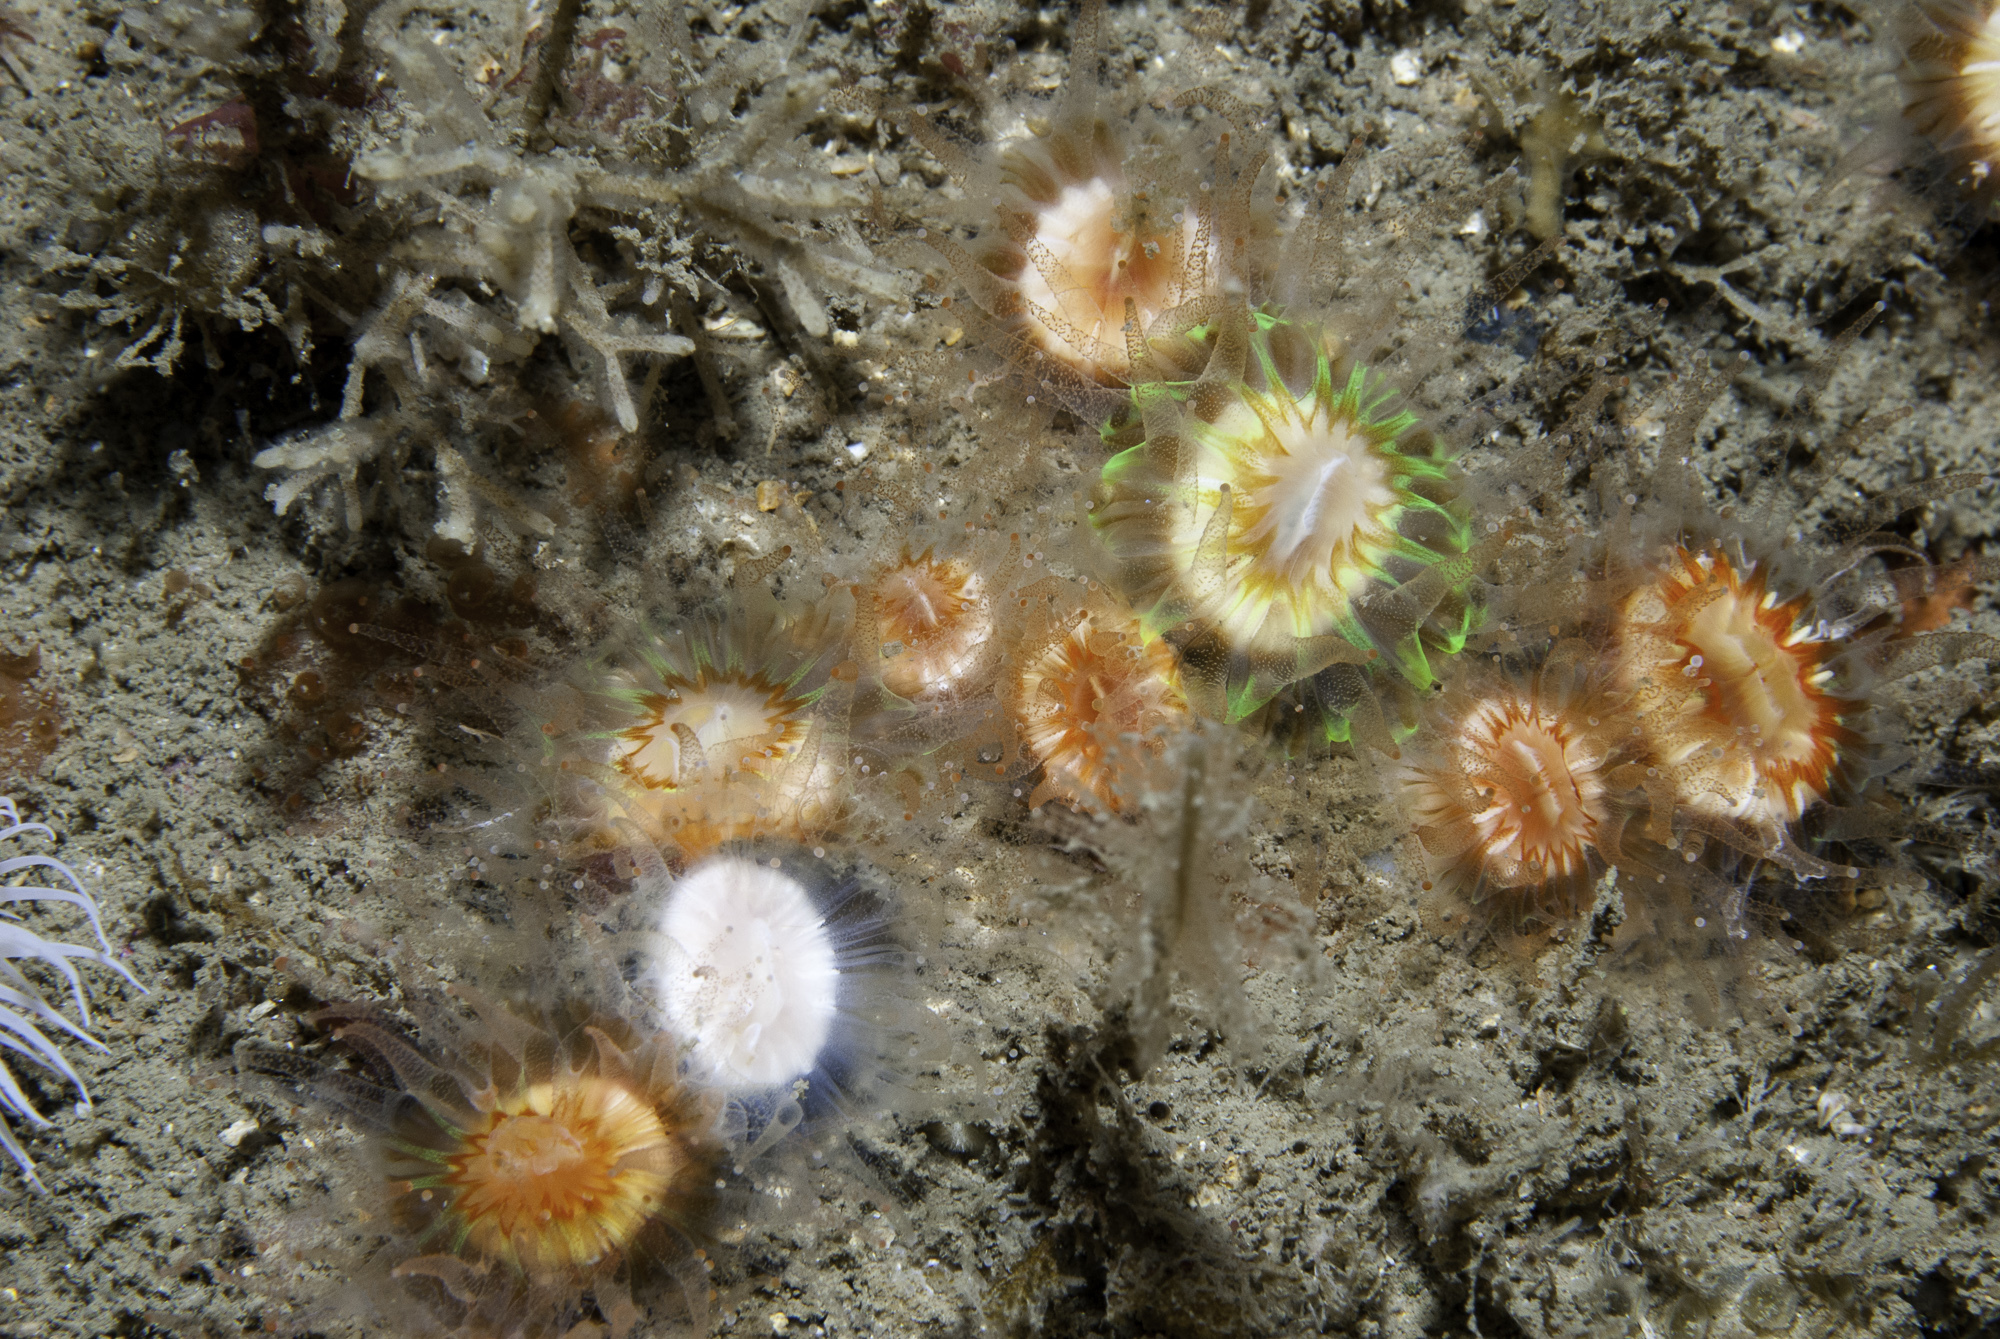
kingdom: Animalia
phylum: Cnidaria
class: Anthozoa
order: Scleractinia
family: Caryophylliidae
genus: Caryophyllia
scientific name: Caryophyllia smithii
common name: Devonshire cup coral
